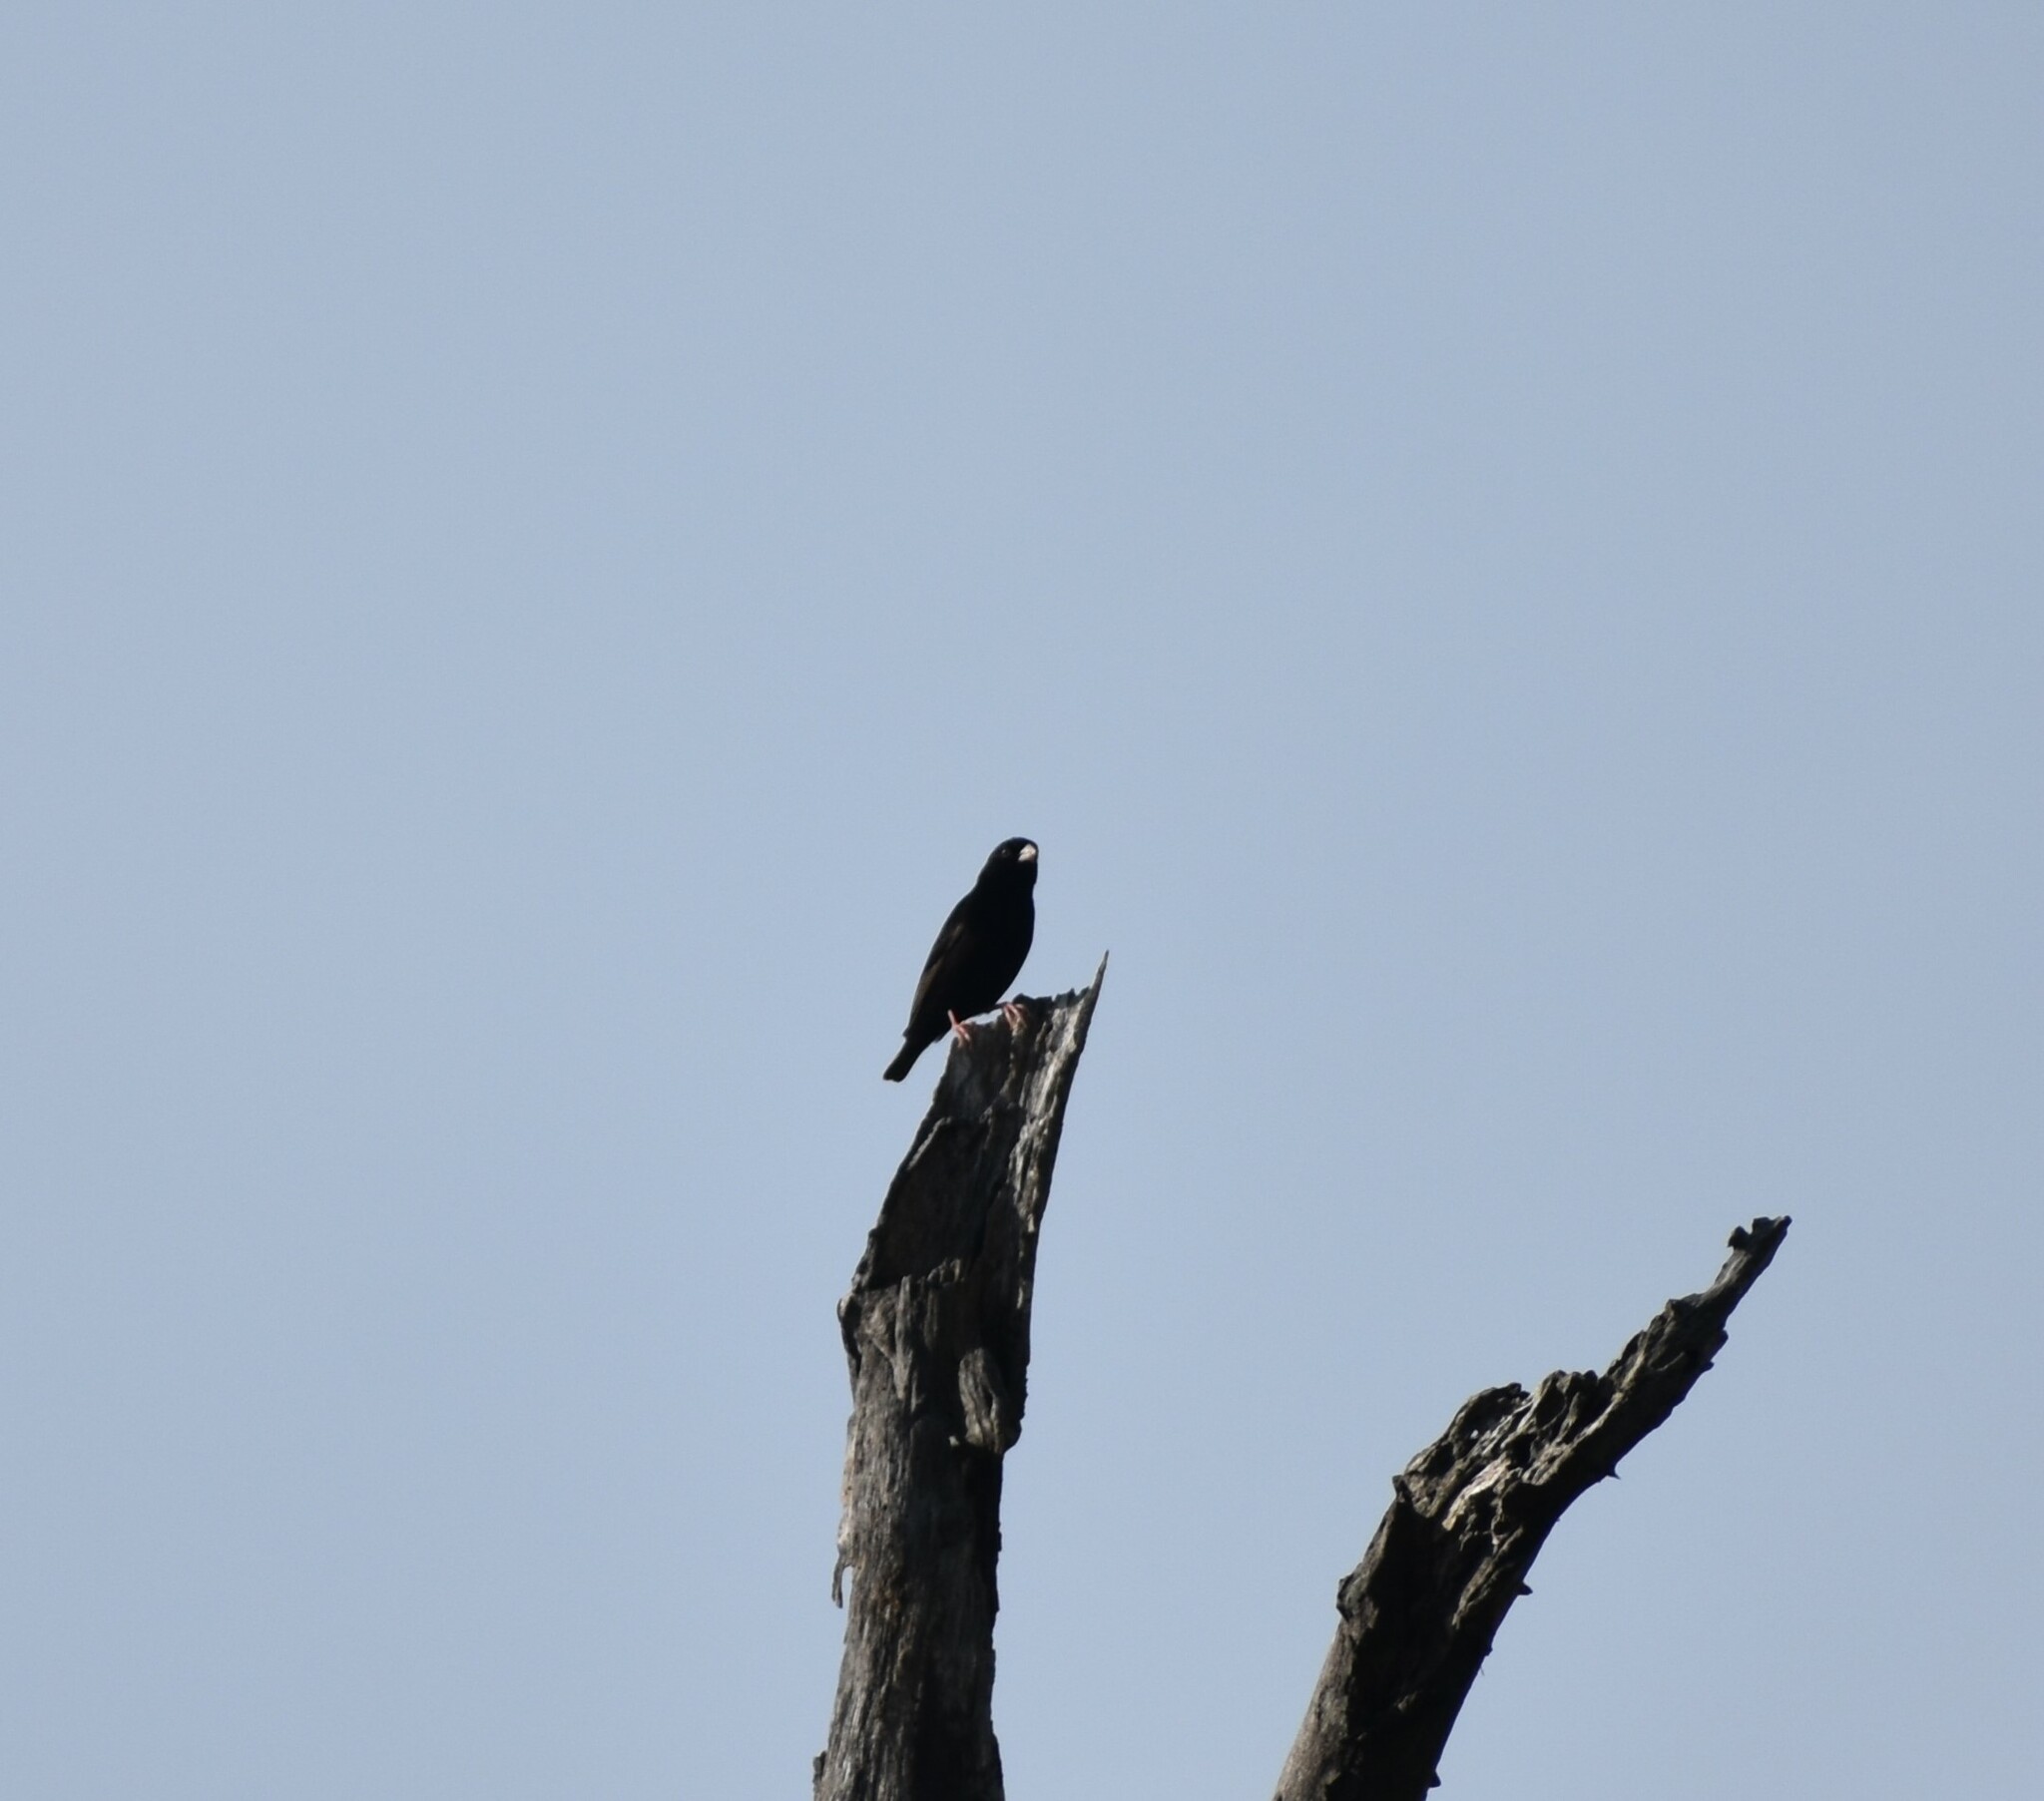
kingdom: Animalia
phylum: Chordata
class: Aves
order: Passeriformes
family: Viduidae
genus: Vidua
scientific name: Vidua purpurascens
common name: Purple indigobird
